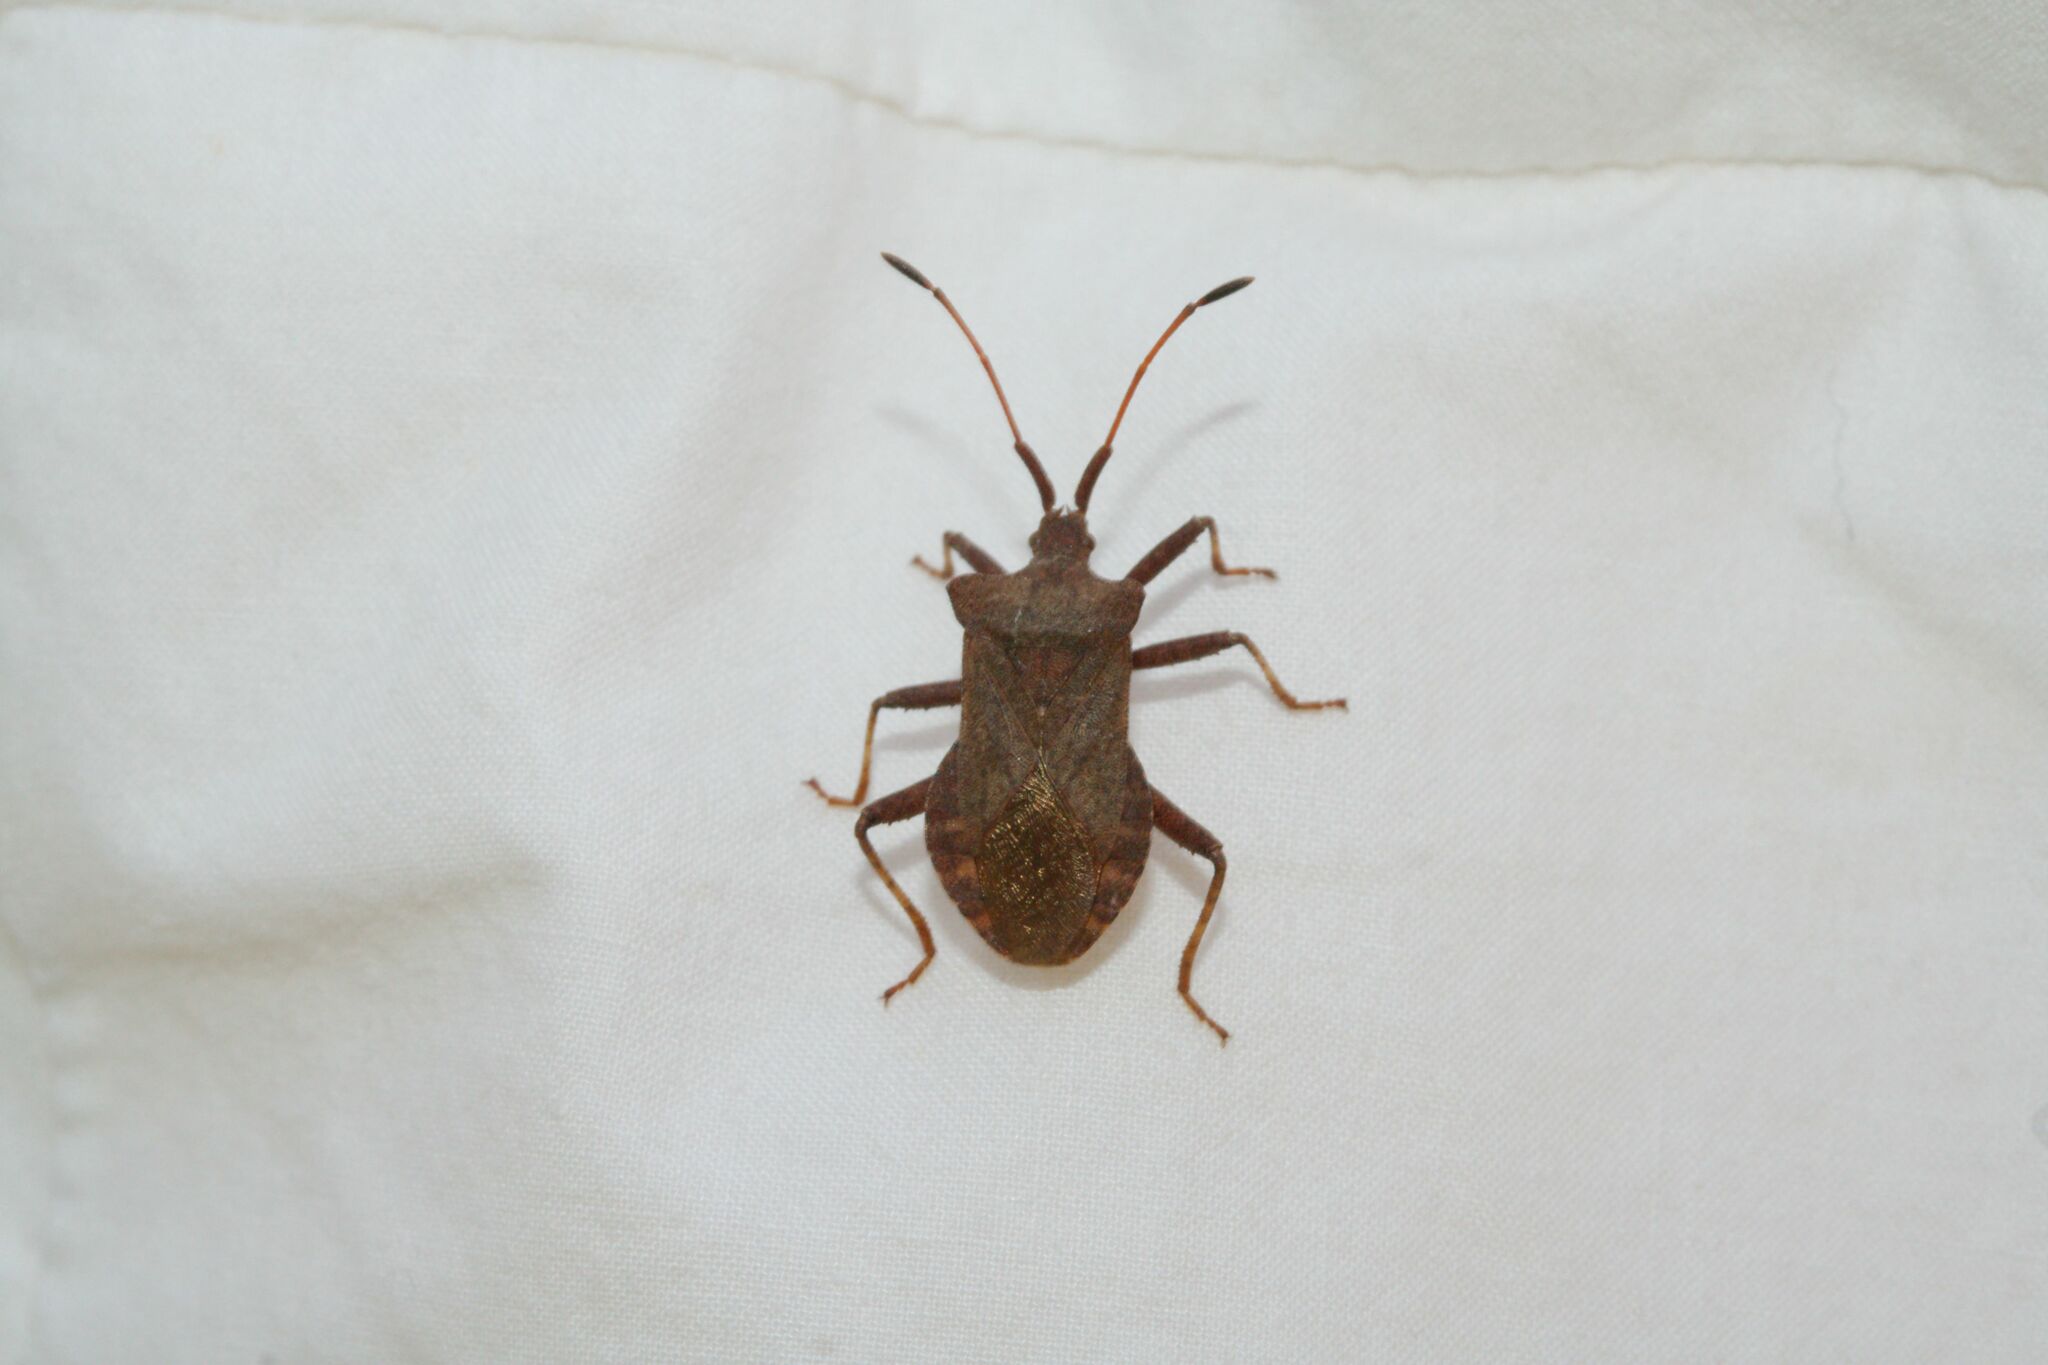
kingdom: Animalia
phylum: Arthropoda
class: Insecta
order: Hemiptera
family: Coreidae
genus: Coreus
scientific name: Coreus marginatus
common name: Dock bug
